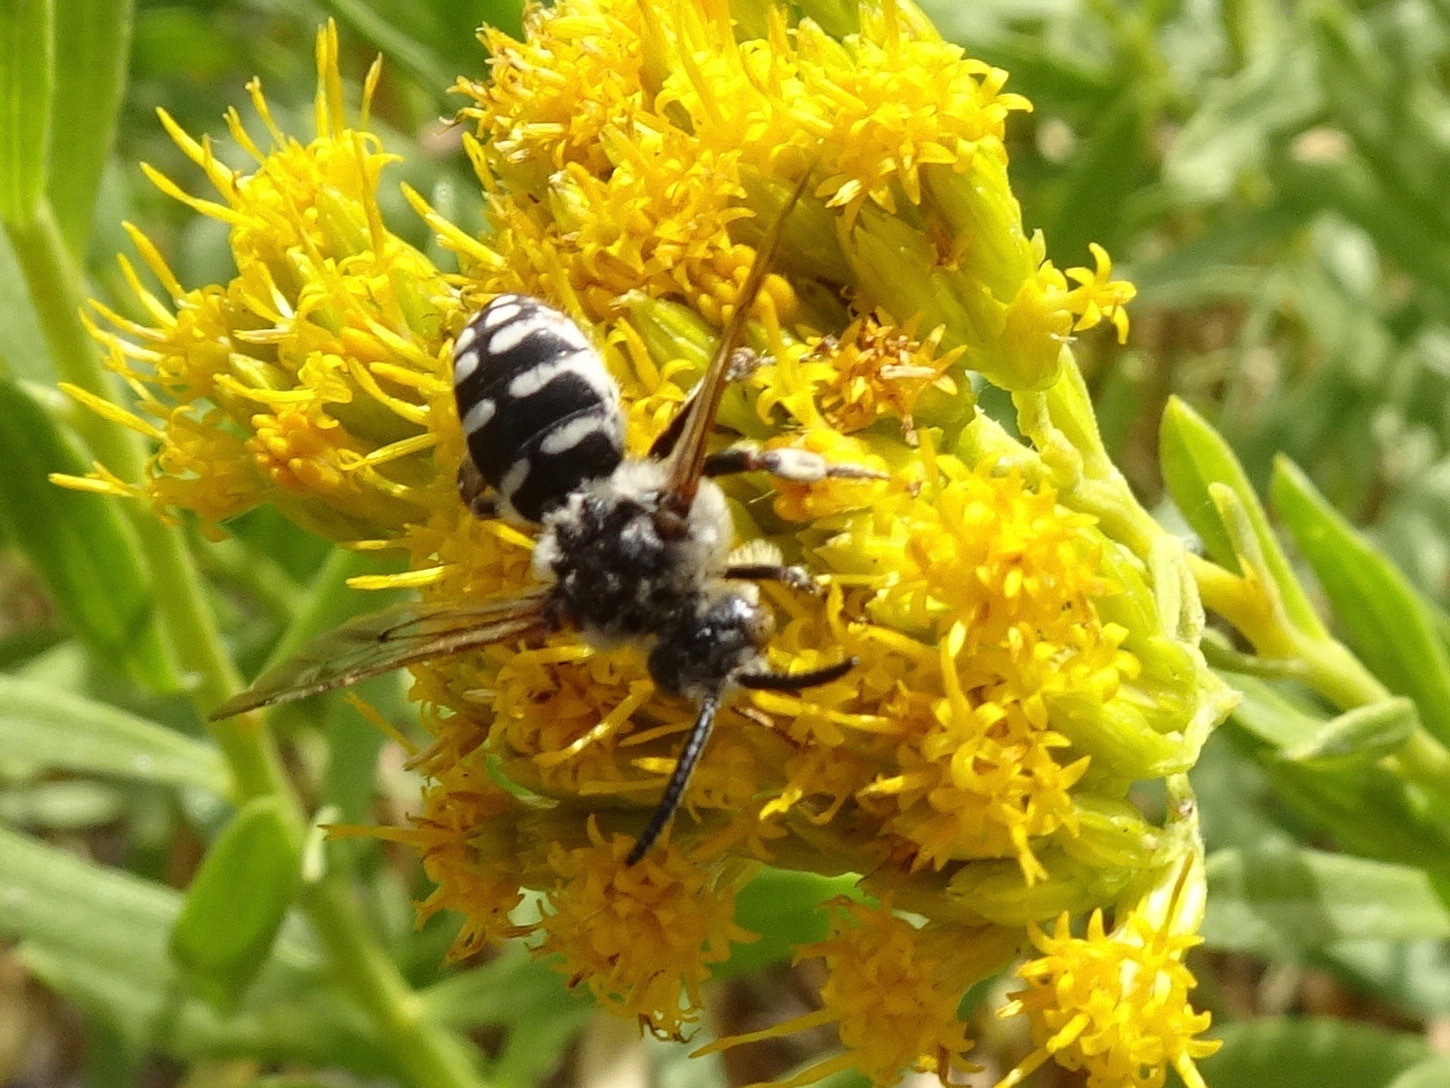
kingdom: Animalia
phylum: Arthropoda
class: Insecta
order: Hymenoptera
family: Apidae
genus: Brachymelecta
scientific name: Brachymelecta californica
